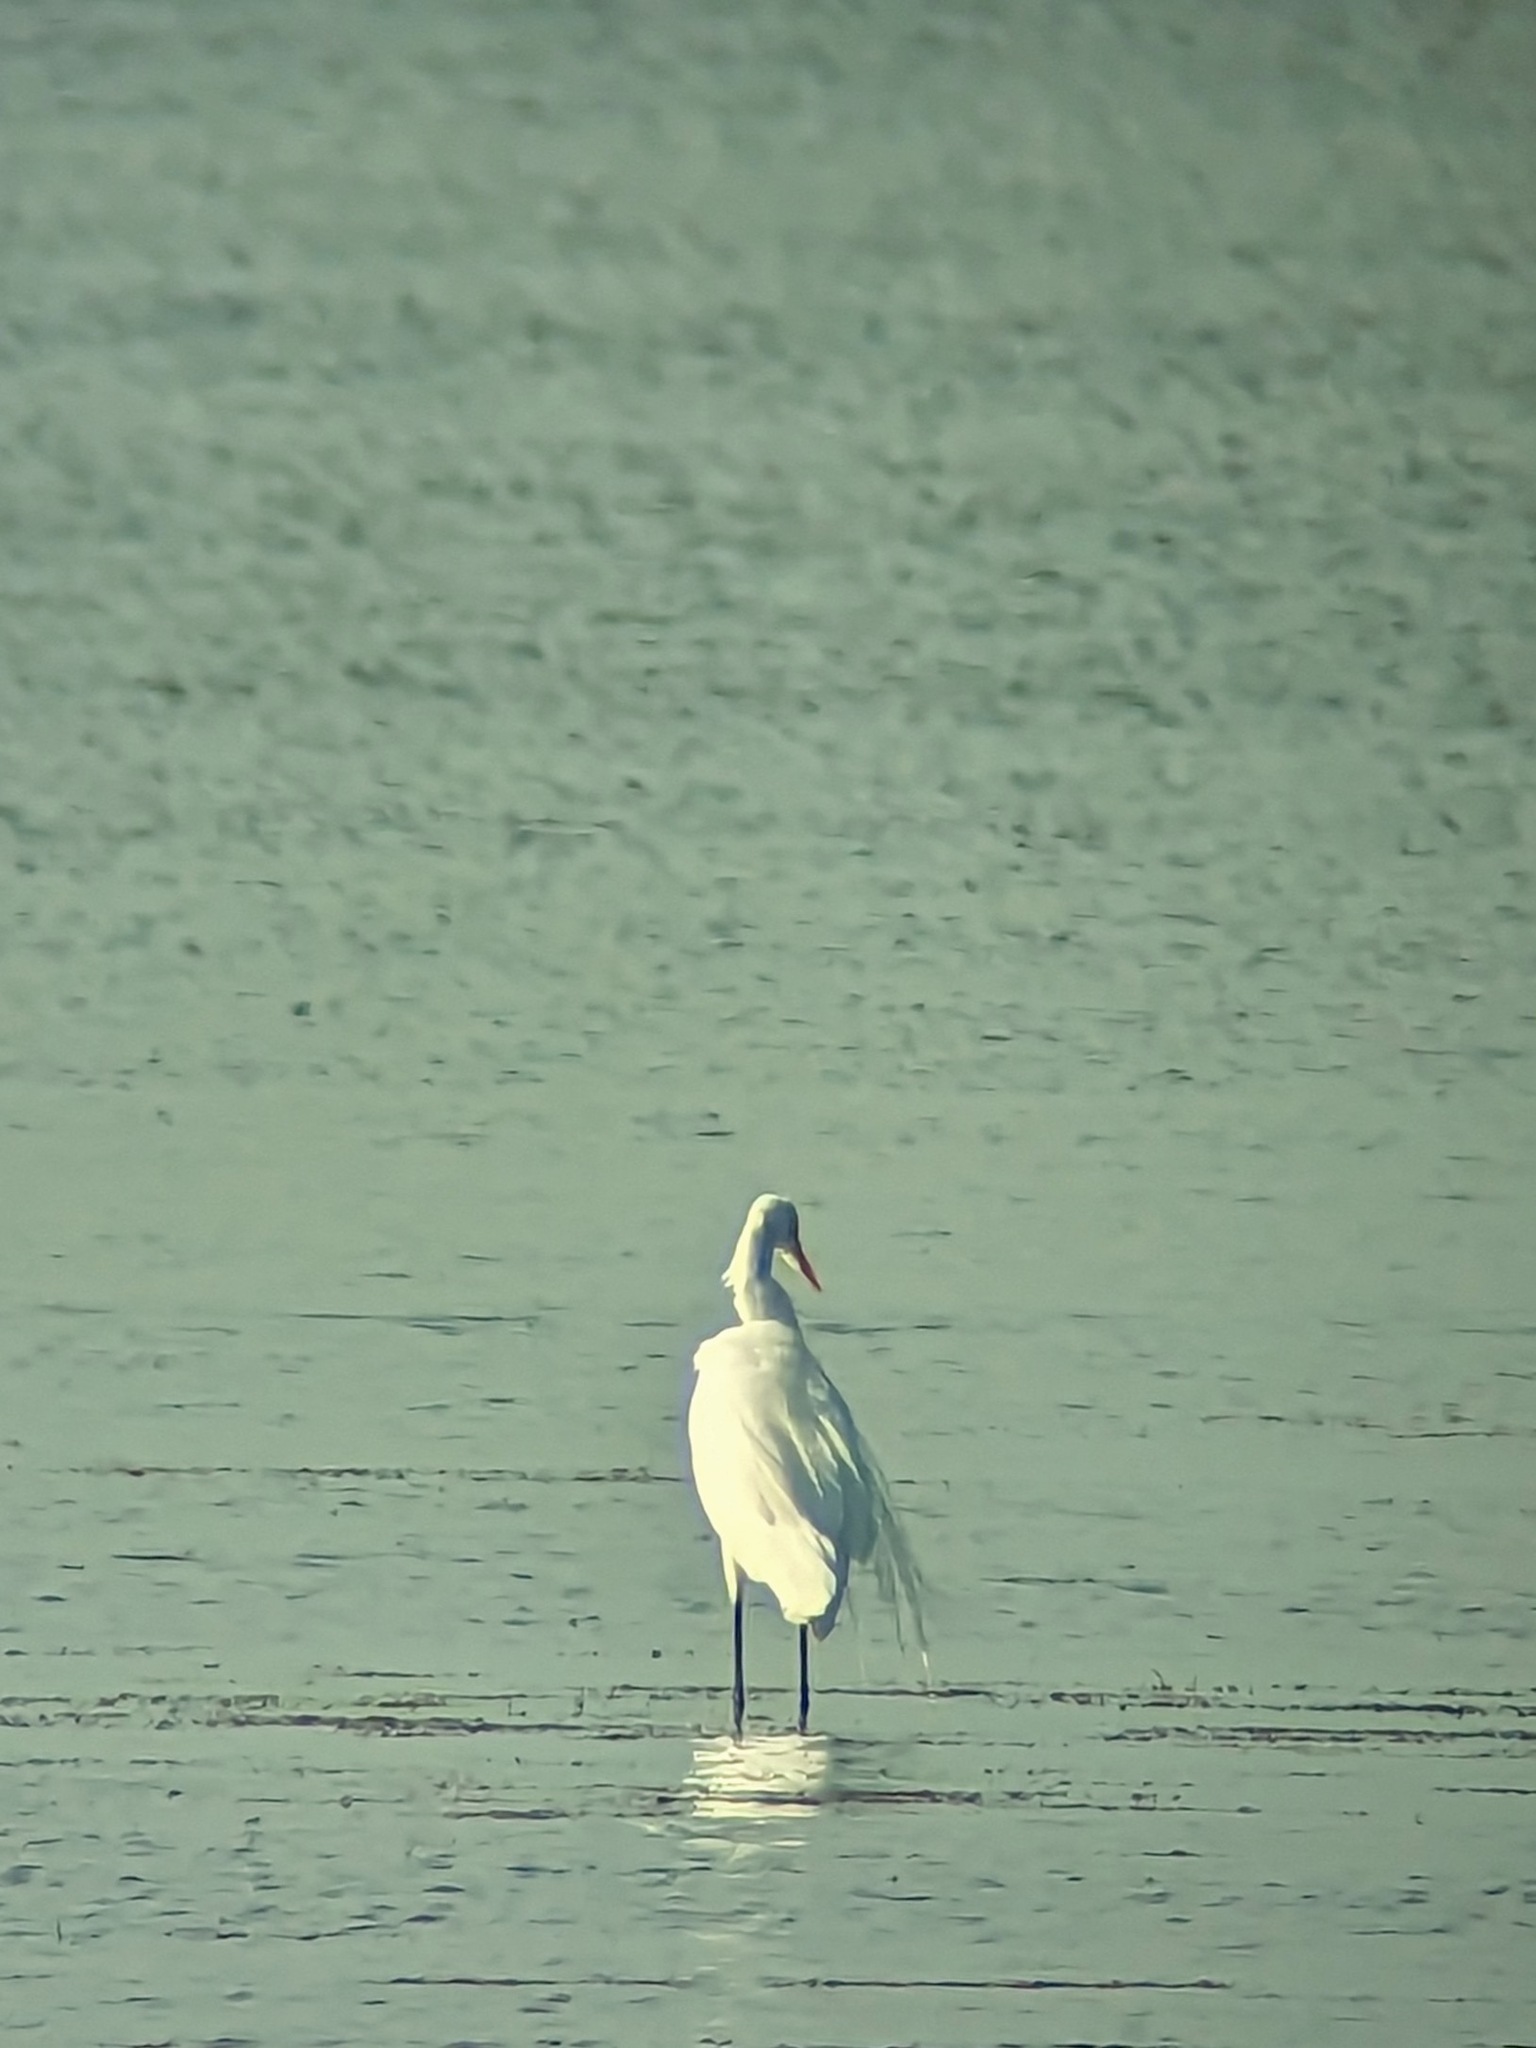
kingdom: Animalia
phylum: Chordata
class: Aves
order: Pelecaniformes
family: Ardeidae
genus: Ardea
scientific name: Ardea alba
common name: Great egret
